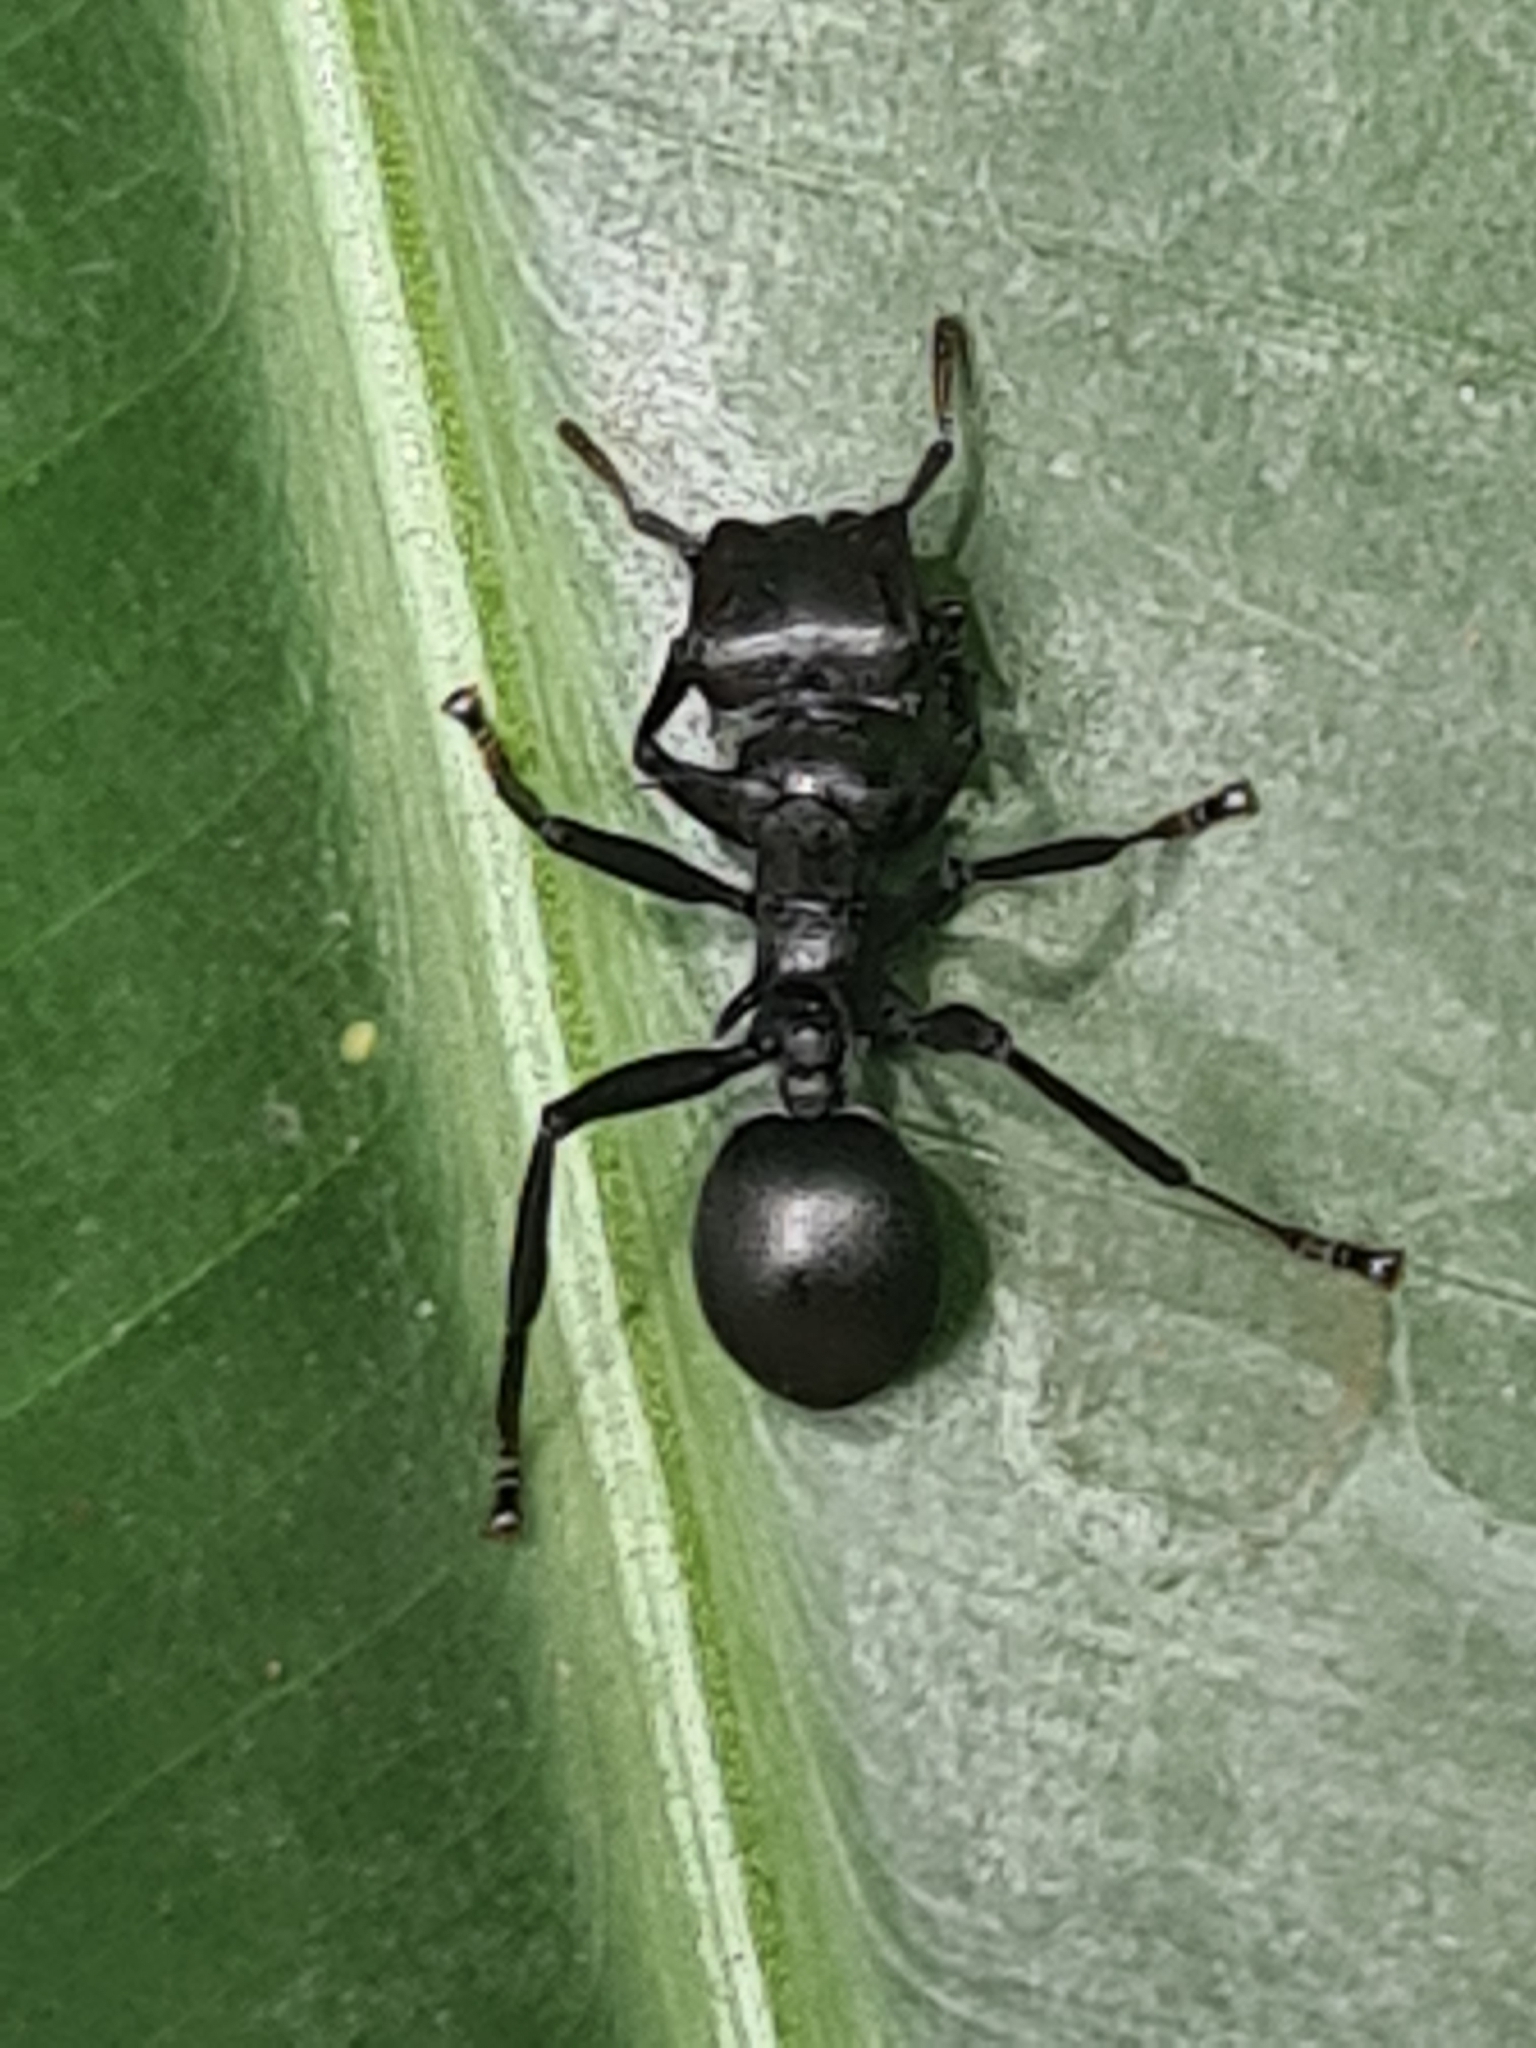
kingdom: Animalia
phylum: Arthropoda
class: Insecta
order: Hymenoptera
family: Formicidae
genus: Cephalotes
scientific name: Cephalotes atratus
